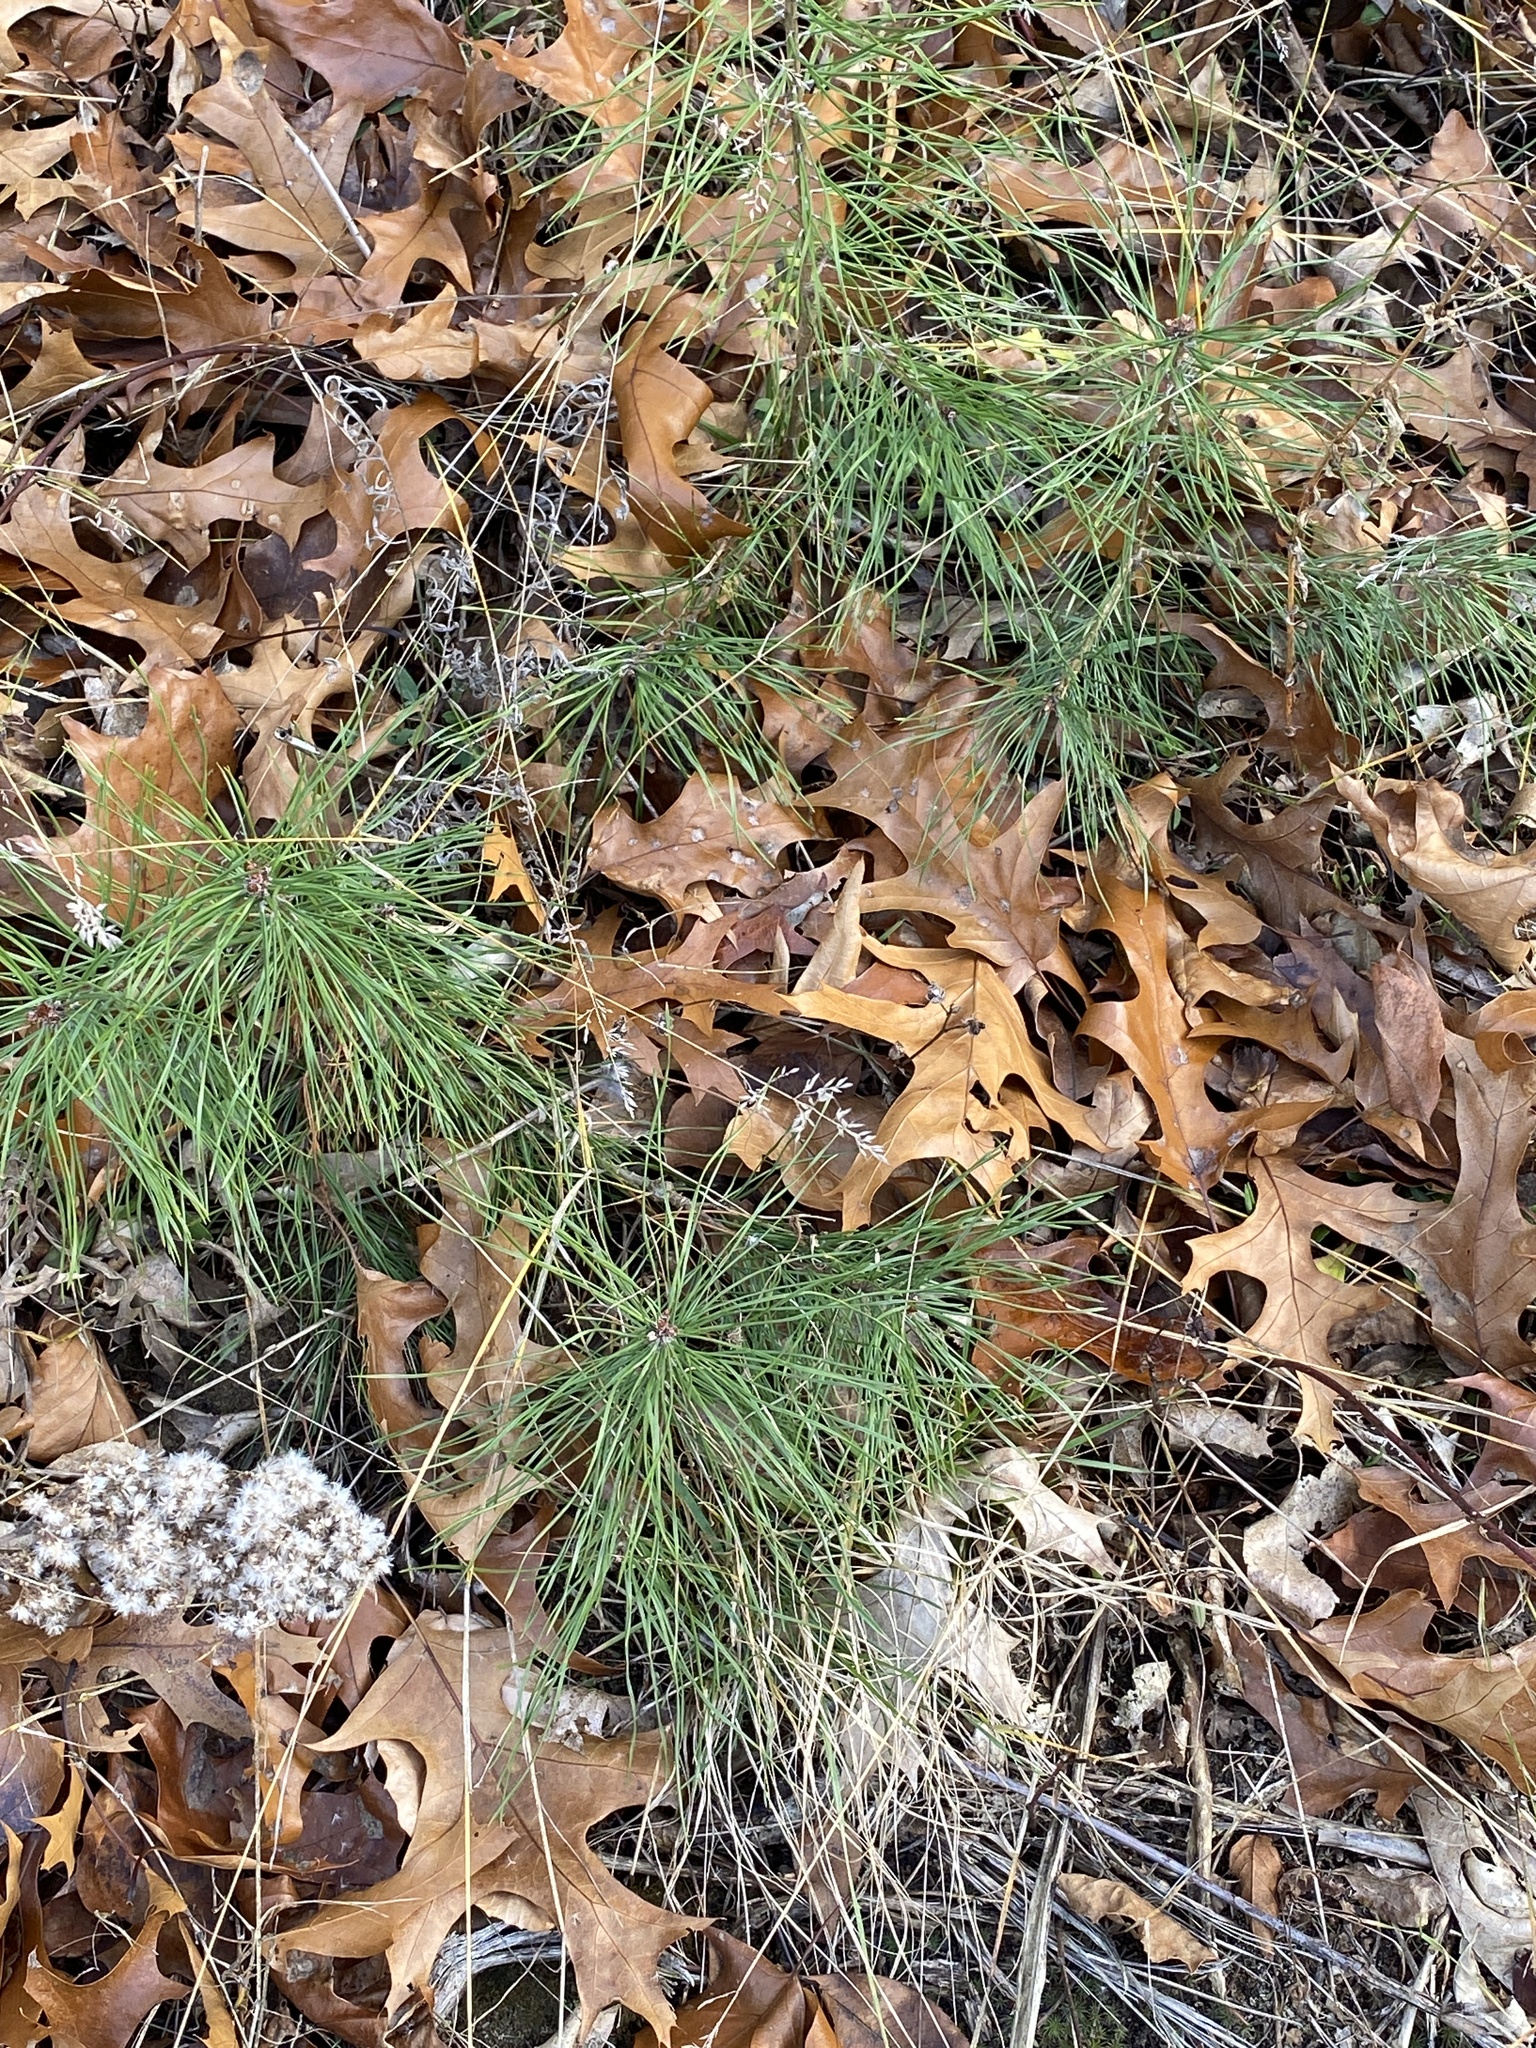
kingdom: Plantae
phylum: Tracheophyta
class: Pinopsida
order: Pinales
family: Pinaceae
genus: Pinus
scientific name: Pinus strobus
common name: Weymouth pine
